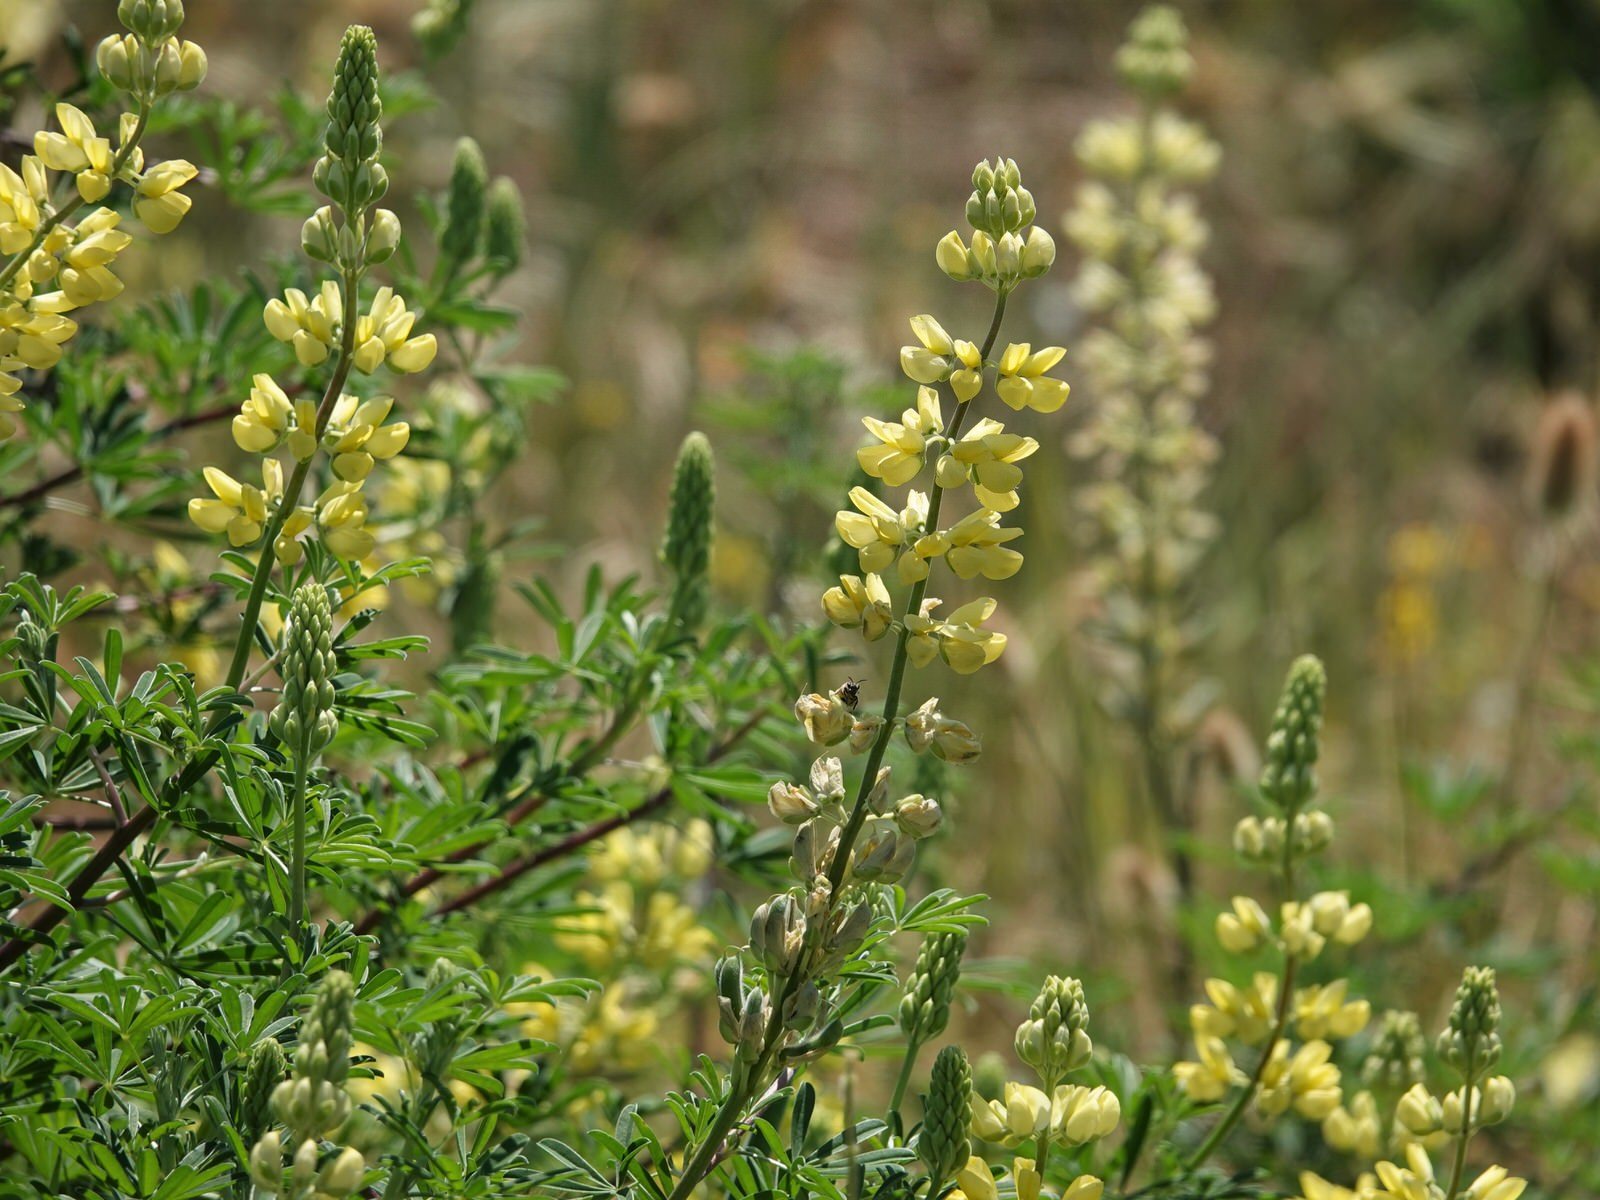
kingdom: Plantae
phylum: Tracheophyta
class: Magnoliopsida
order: Fabales
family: Fabaceae
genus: Lupinus
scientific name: Lupinus arboreus
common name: Yellow bush lupine
